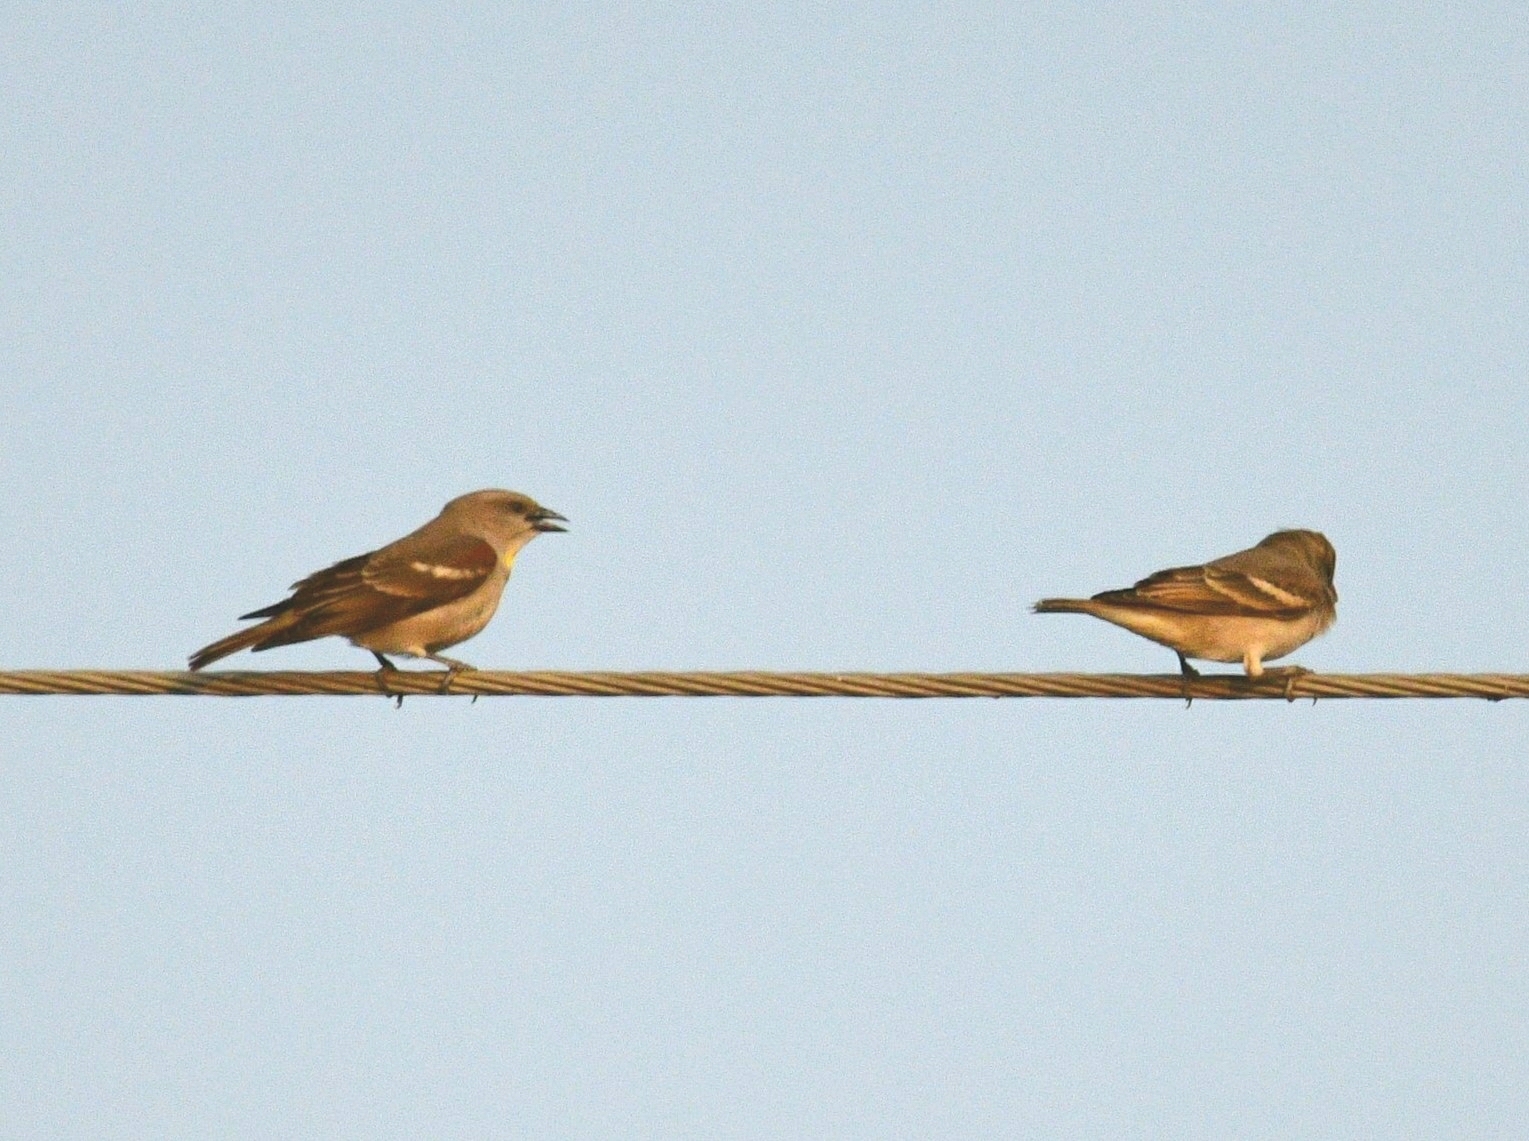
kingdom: Animalia
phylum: Chordata
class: Aves
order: Passeriformes
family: Passeridae
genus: Gymnoris
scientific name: Gymnoris xanthocollis
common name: Yellow-throated sparrow
